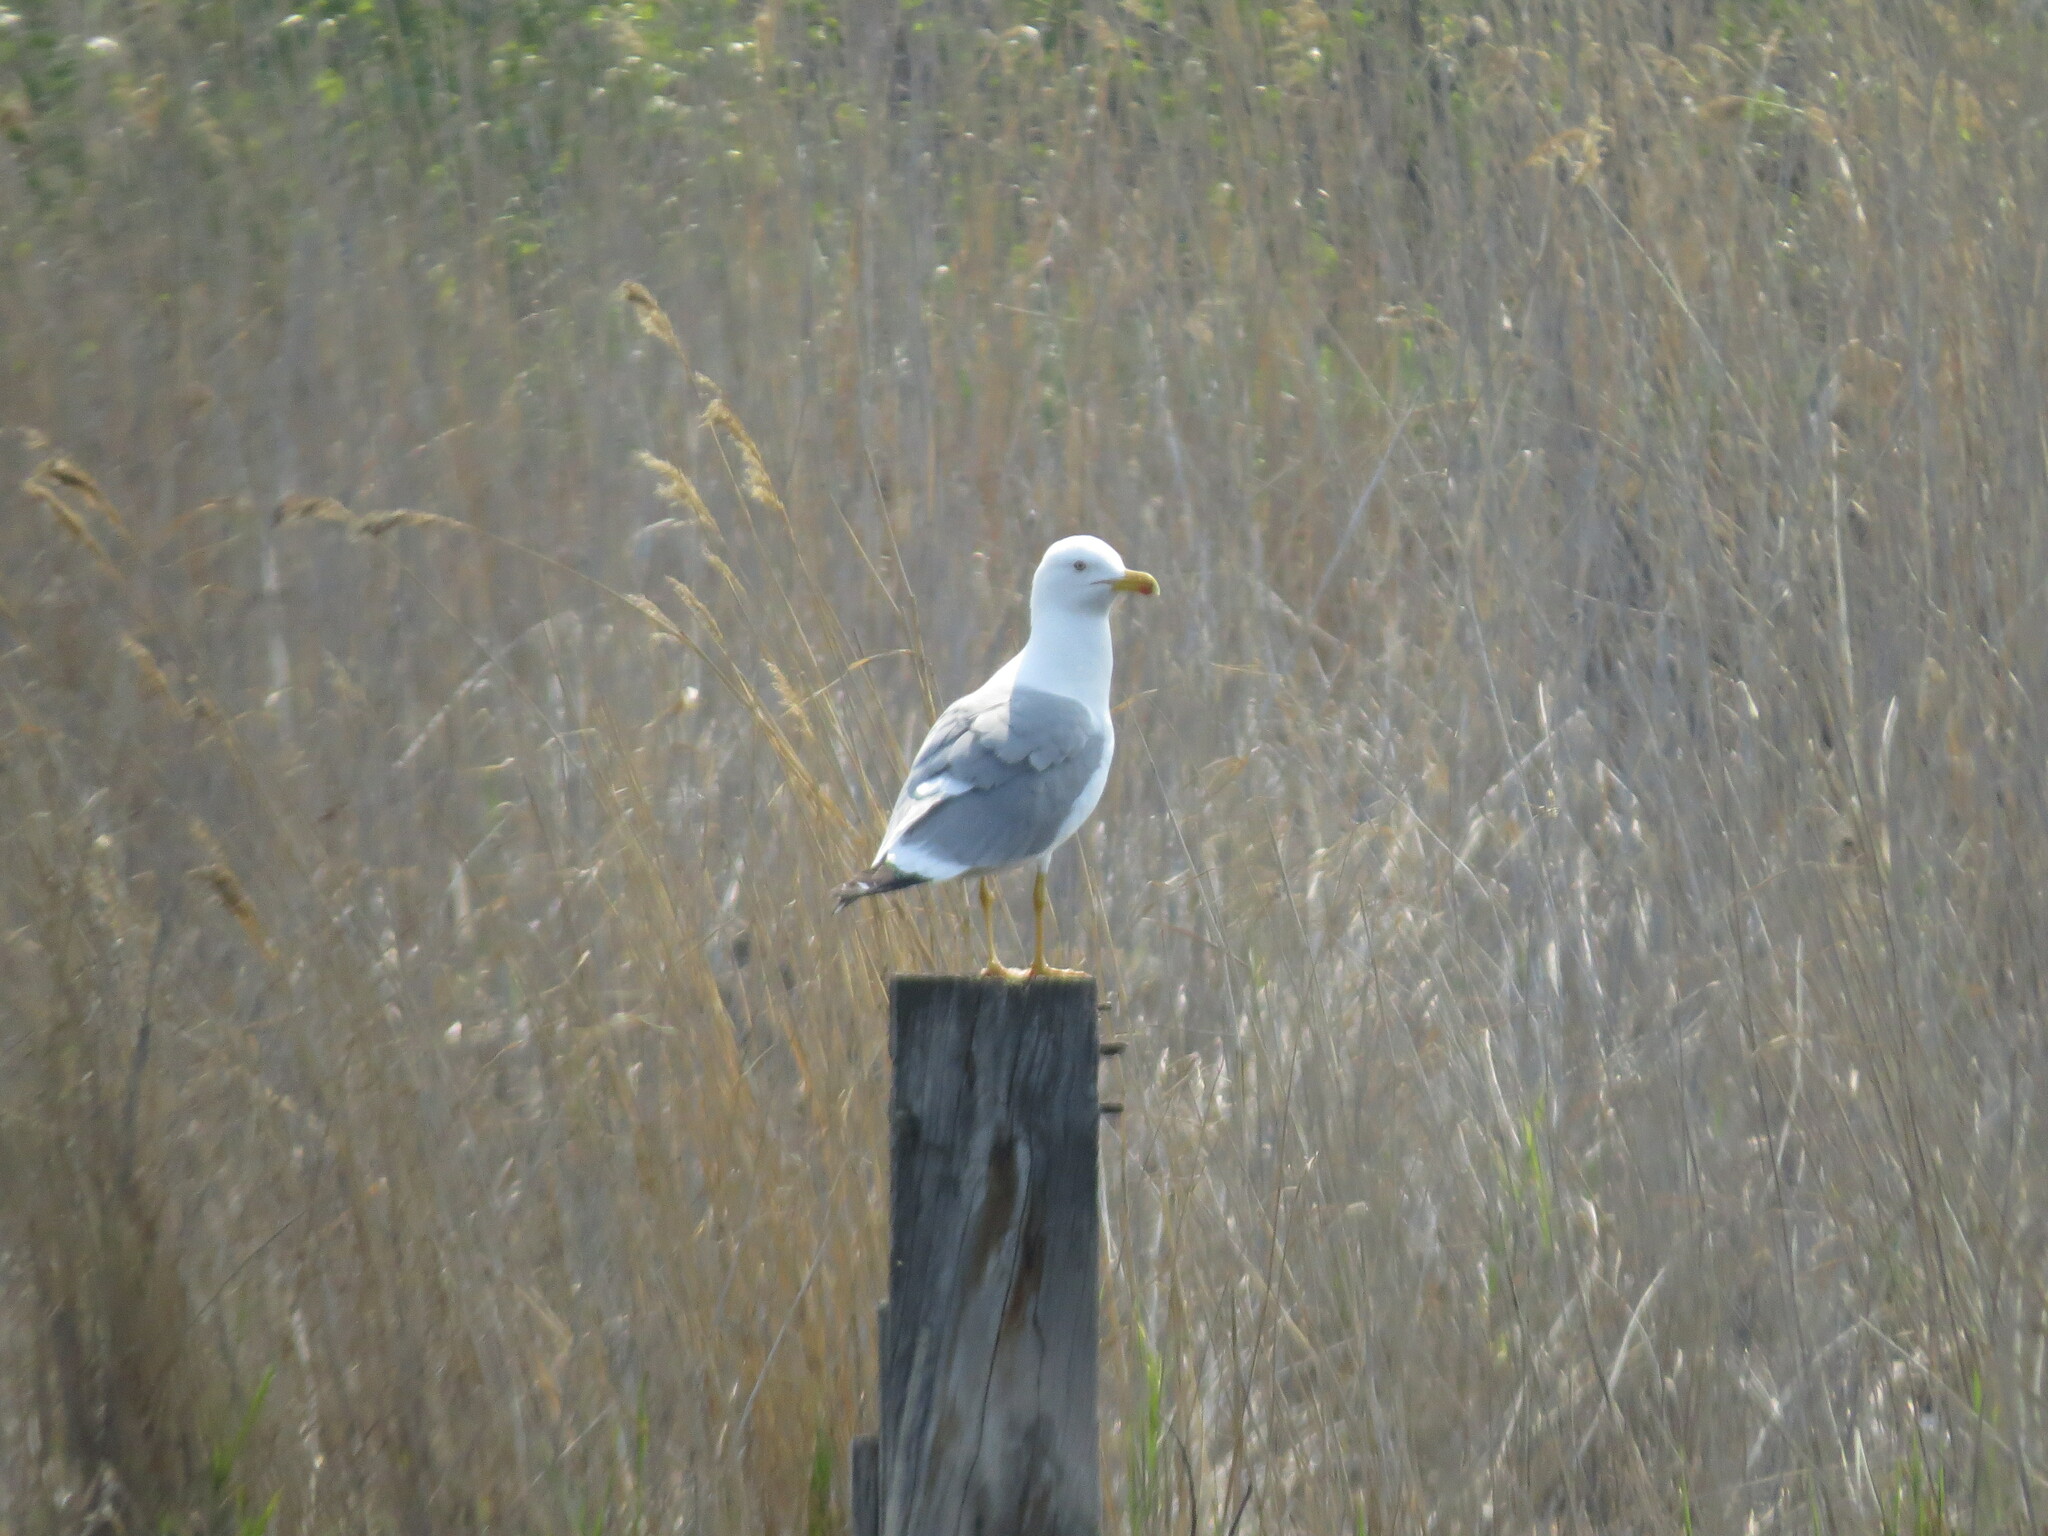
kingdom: Animalia
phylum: Chordata
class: Aves
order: Charadriiformes
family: Laridae
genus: Larus
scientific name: Larus fuscus
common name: Lesser black-backed gull
